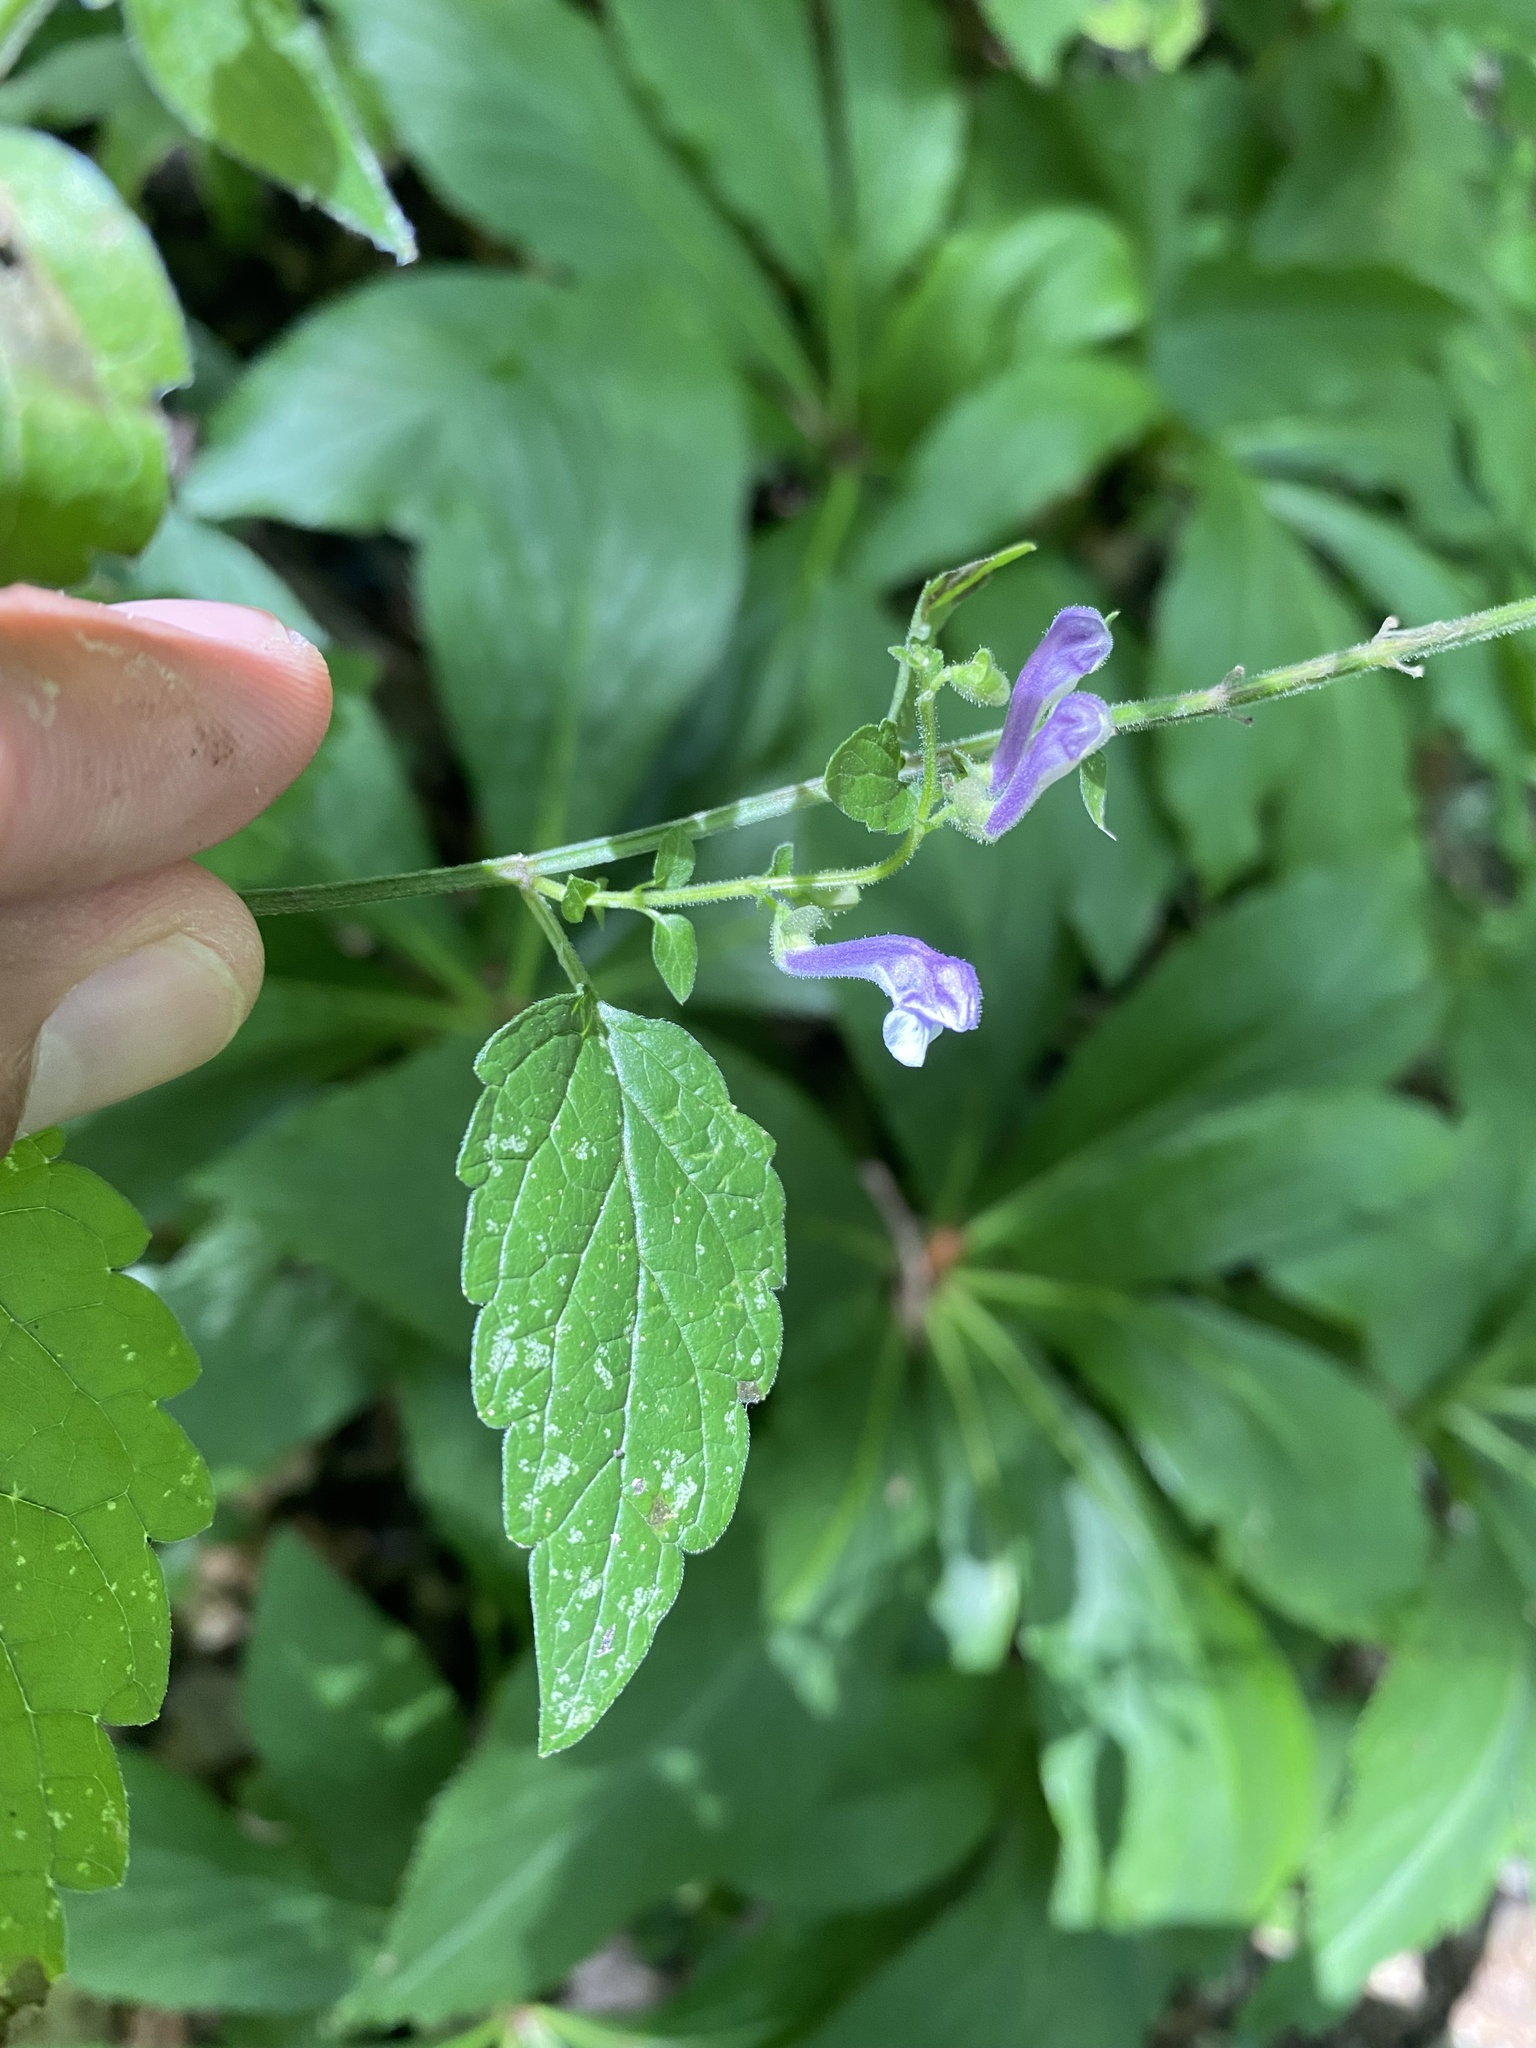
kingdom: Plantae
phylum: Tracheophyta
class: Magnoliopsida
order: Lamiales
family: Lamiaceae
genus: Scutellaria
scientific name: Scutellaria altissima
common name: Somerset skullcap
